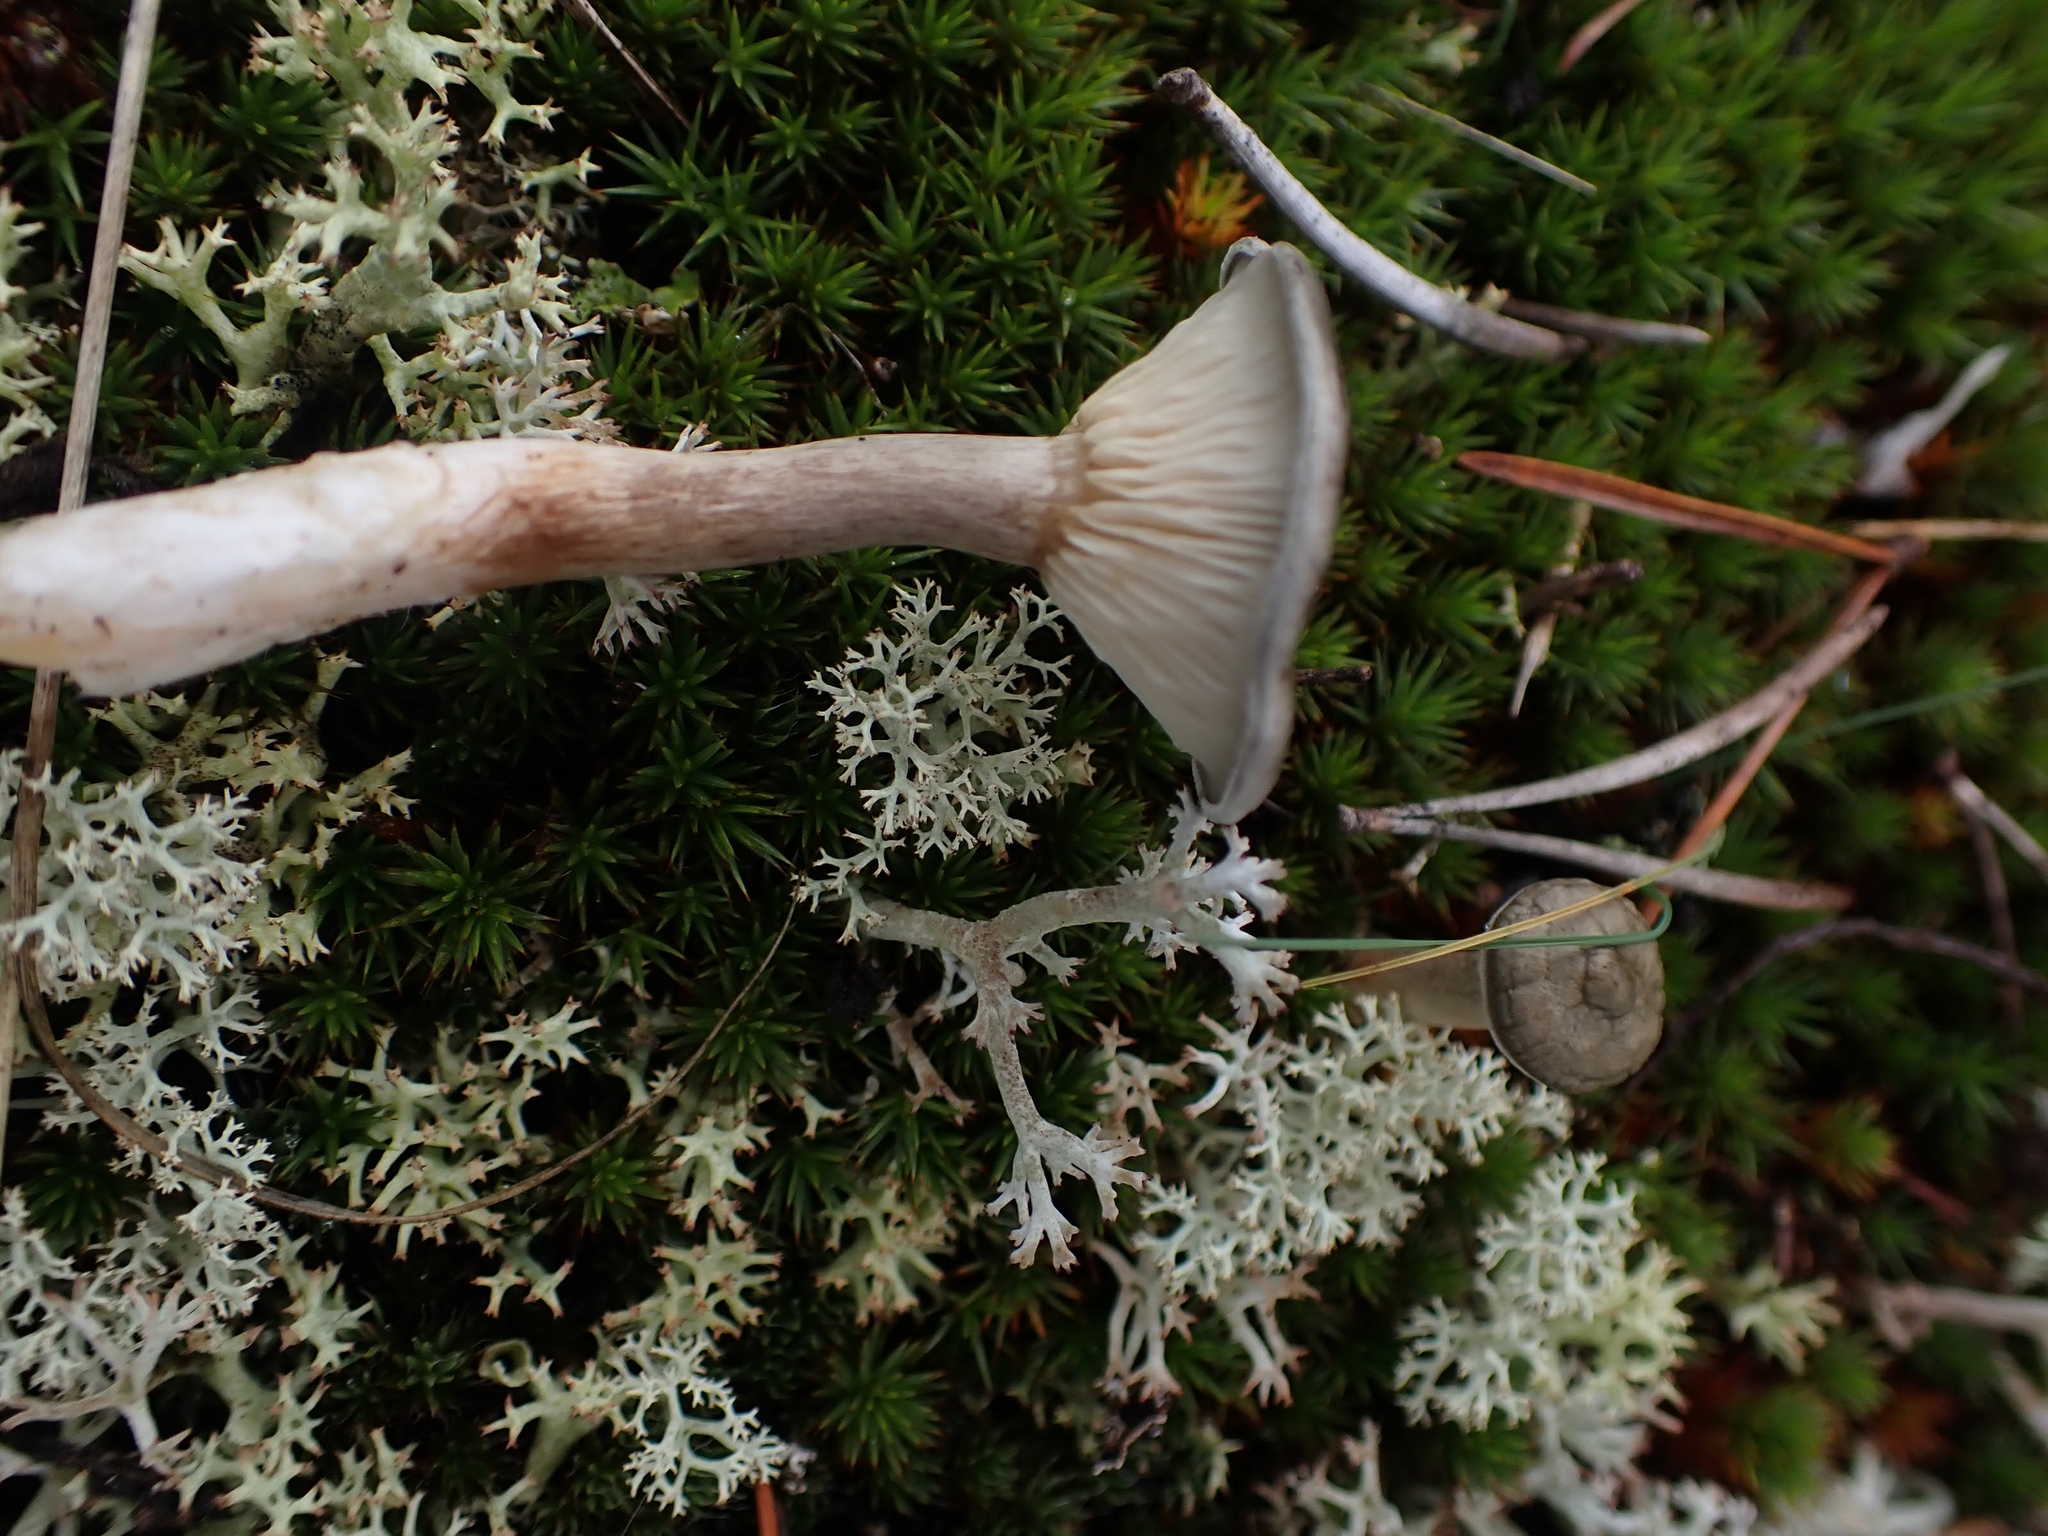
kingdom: Fungi
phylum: Basidiomycota
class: Agaricomycetes
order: Agaricales
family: Hygrophoraceae
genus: Cantharellula
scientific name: Cantharellula umbonata
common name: The humpback
